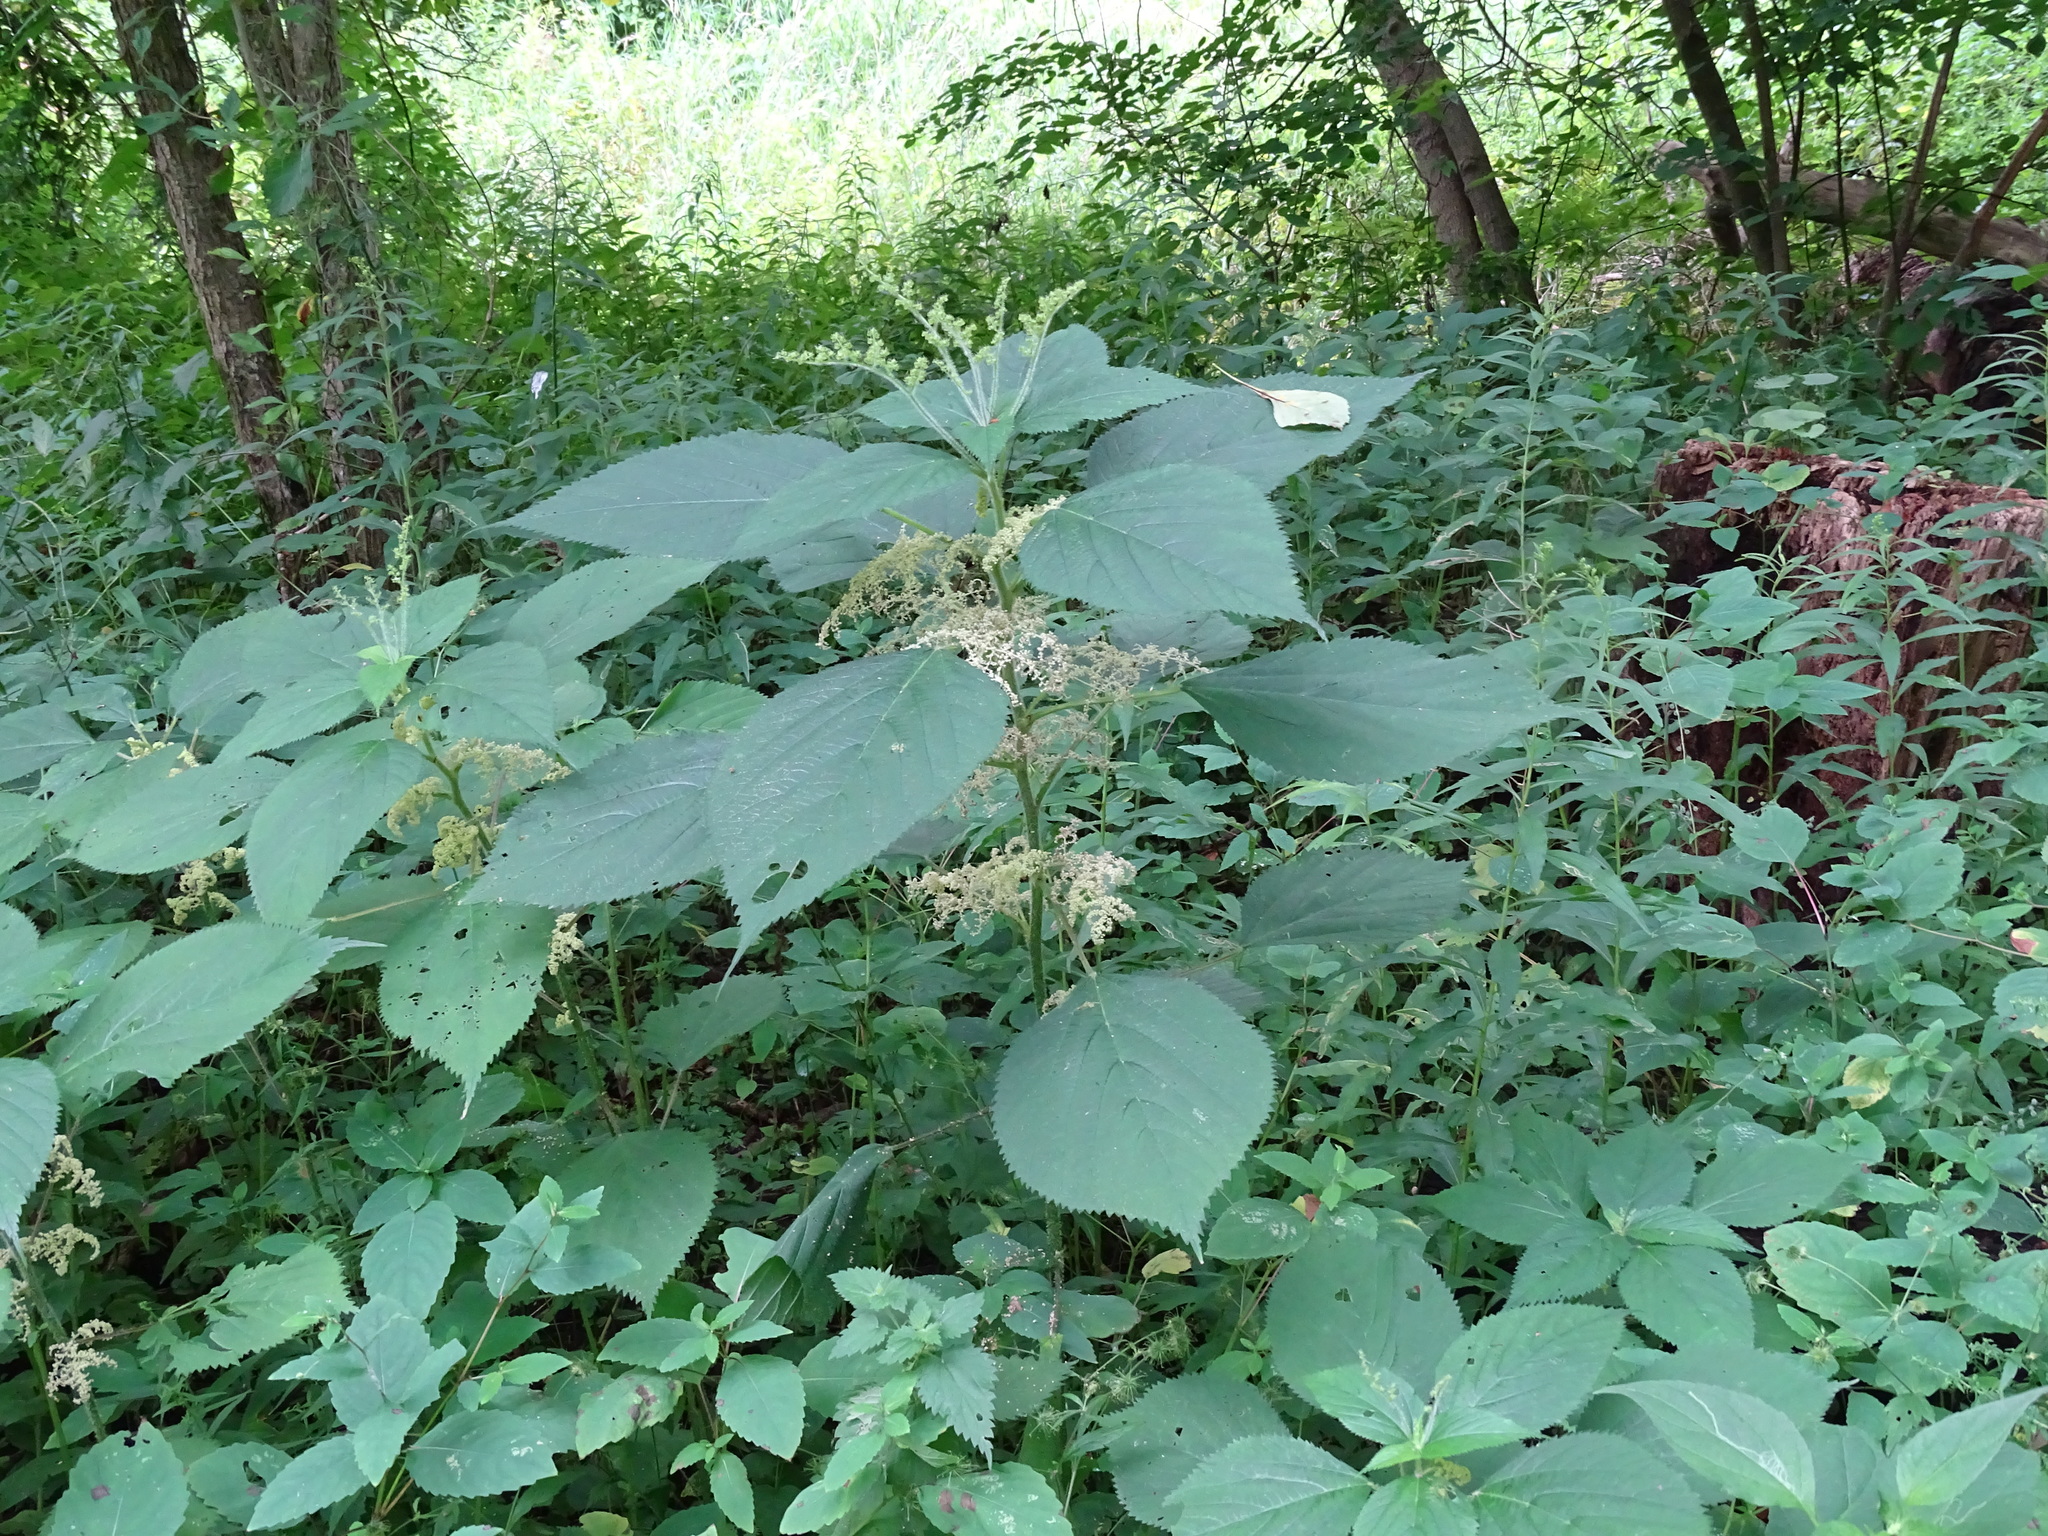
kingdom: Plantae
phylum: Tracheophyta
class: Magnoliopsida
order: Rosales
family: Urticaceae
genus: Laportea
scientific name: Laportea canadensis
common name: Canada nettle
